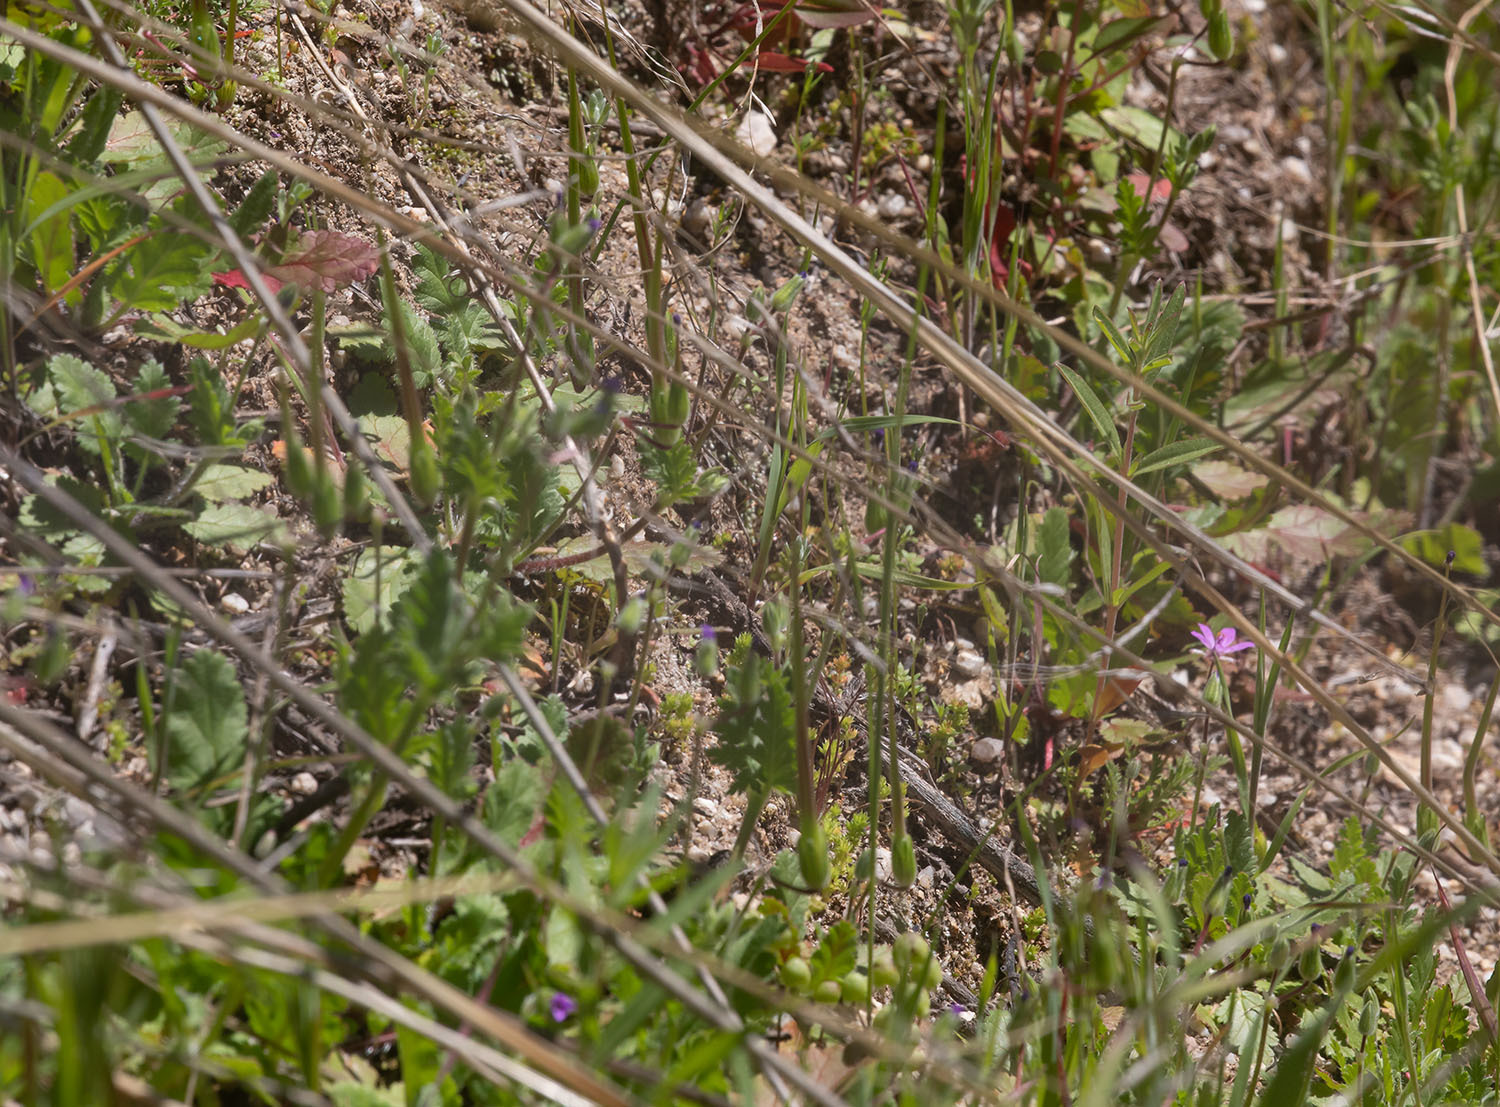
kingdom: Animalia
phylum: Arthropoda
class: Insecta
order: Lepidoptera
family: Sphingidae
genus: Proserpinus
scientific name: Proserpinus clarkiae
